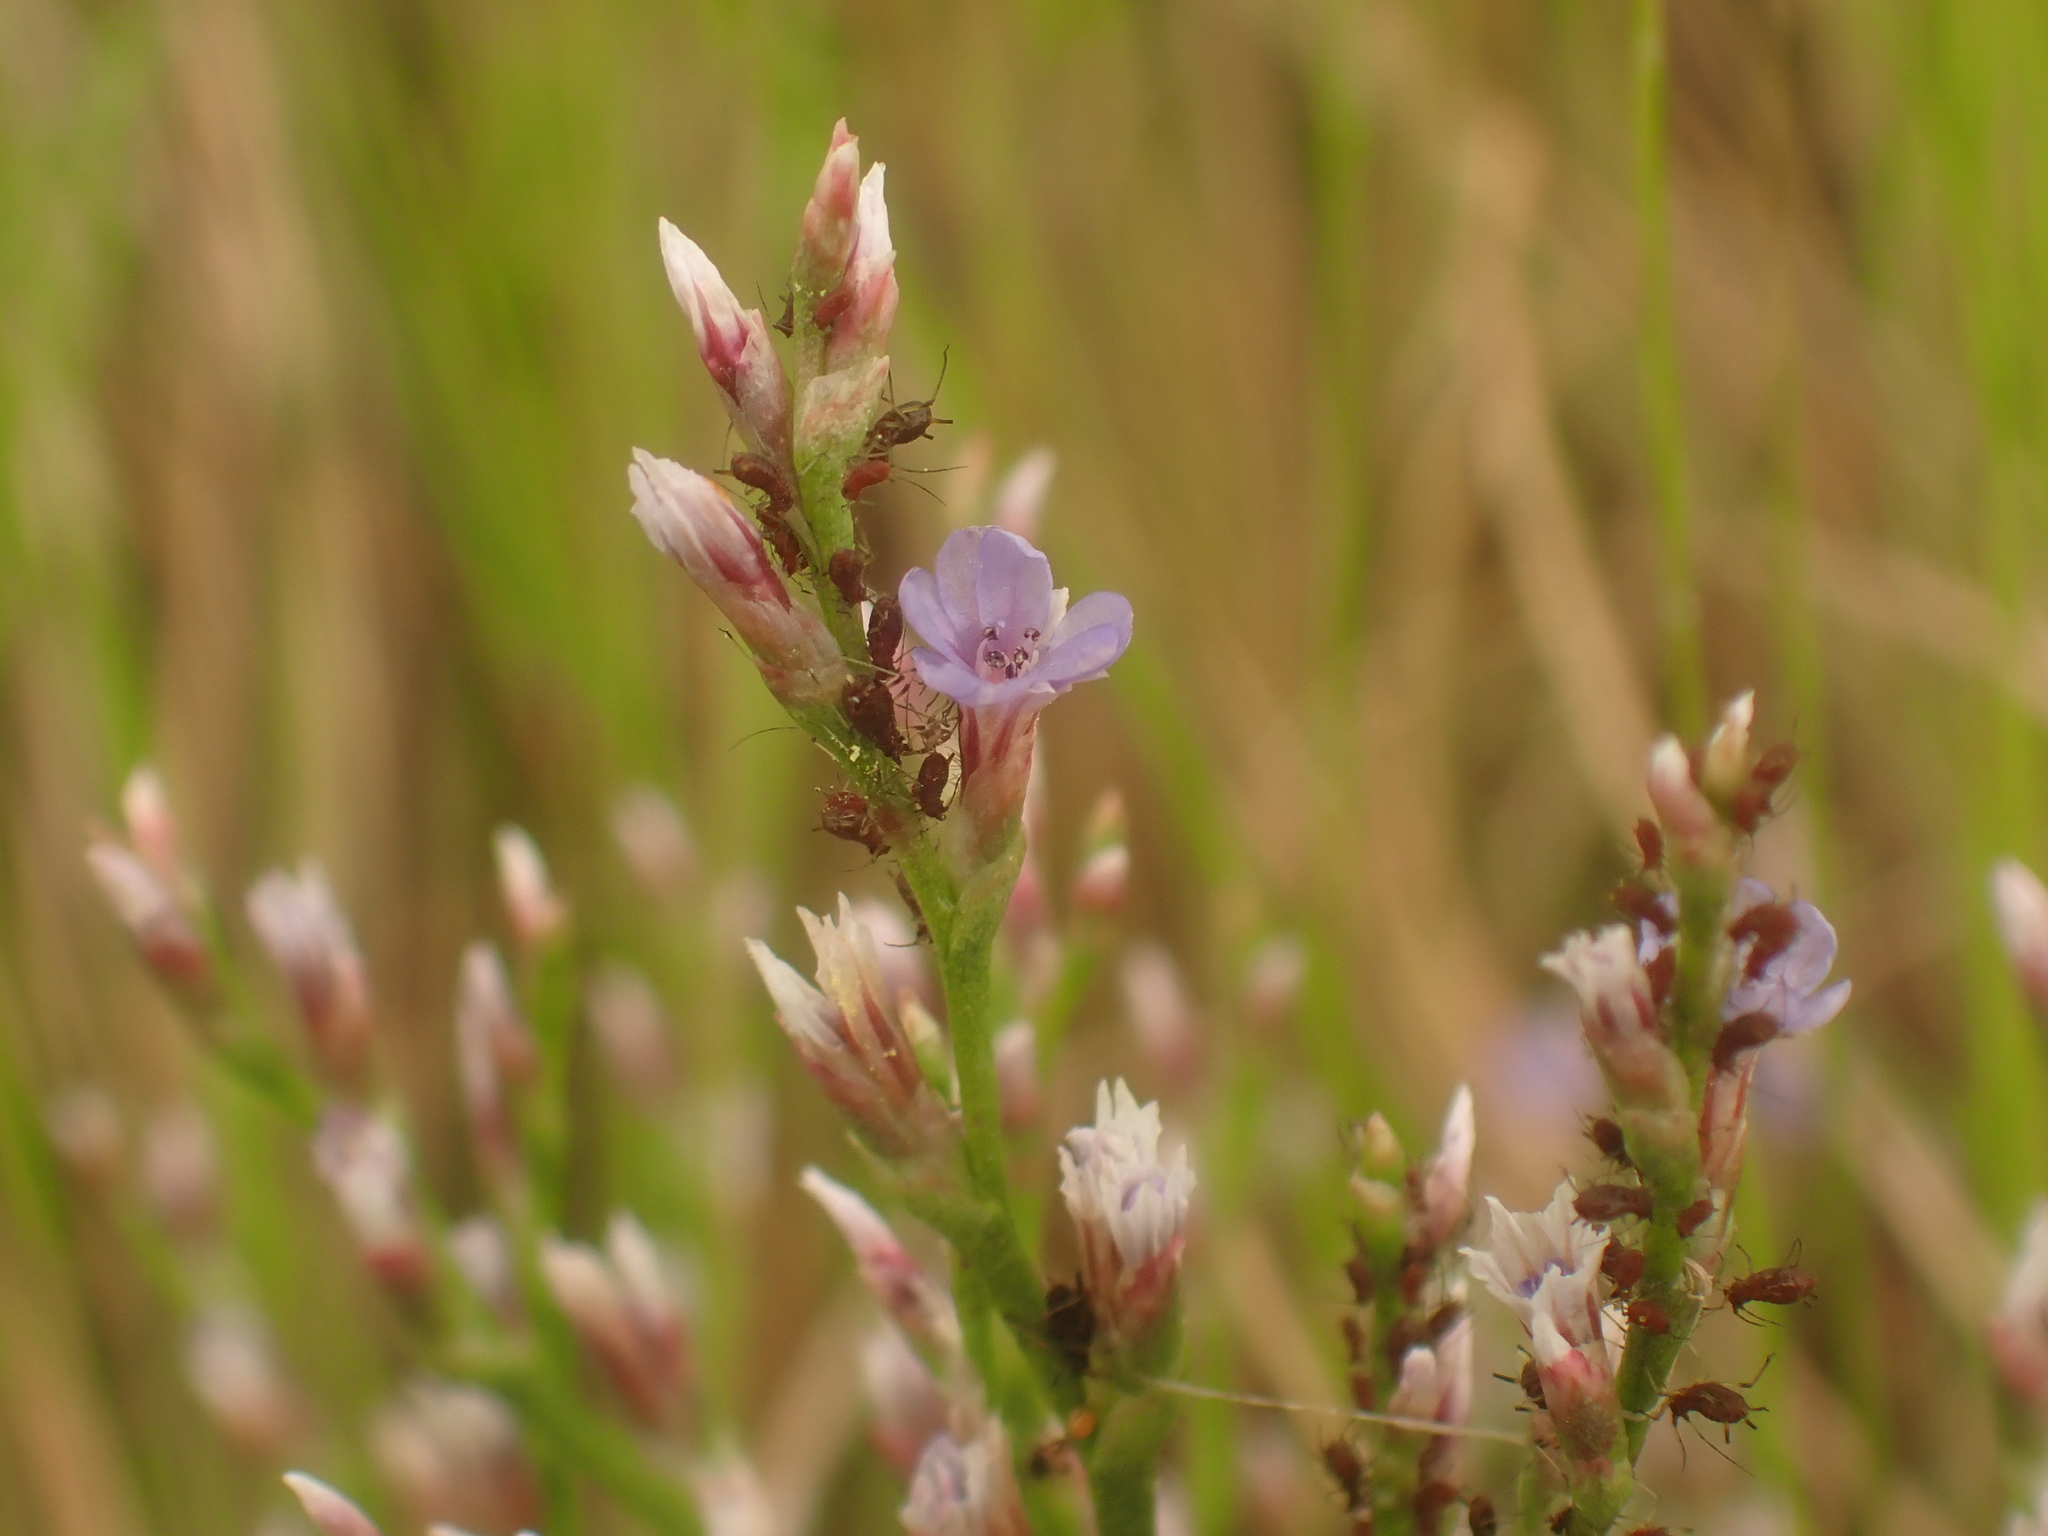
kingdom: Plantae
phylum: Tracheophyta
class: Magnoliopsida
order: Caryophyllales
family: Plumbaginaceae
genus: Limonium
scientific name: Limonium carolinianum
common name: Carolina sea lavender
